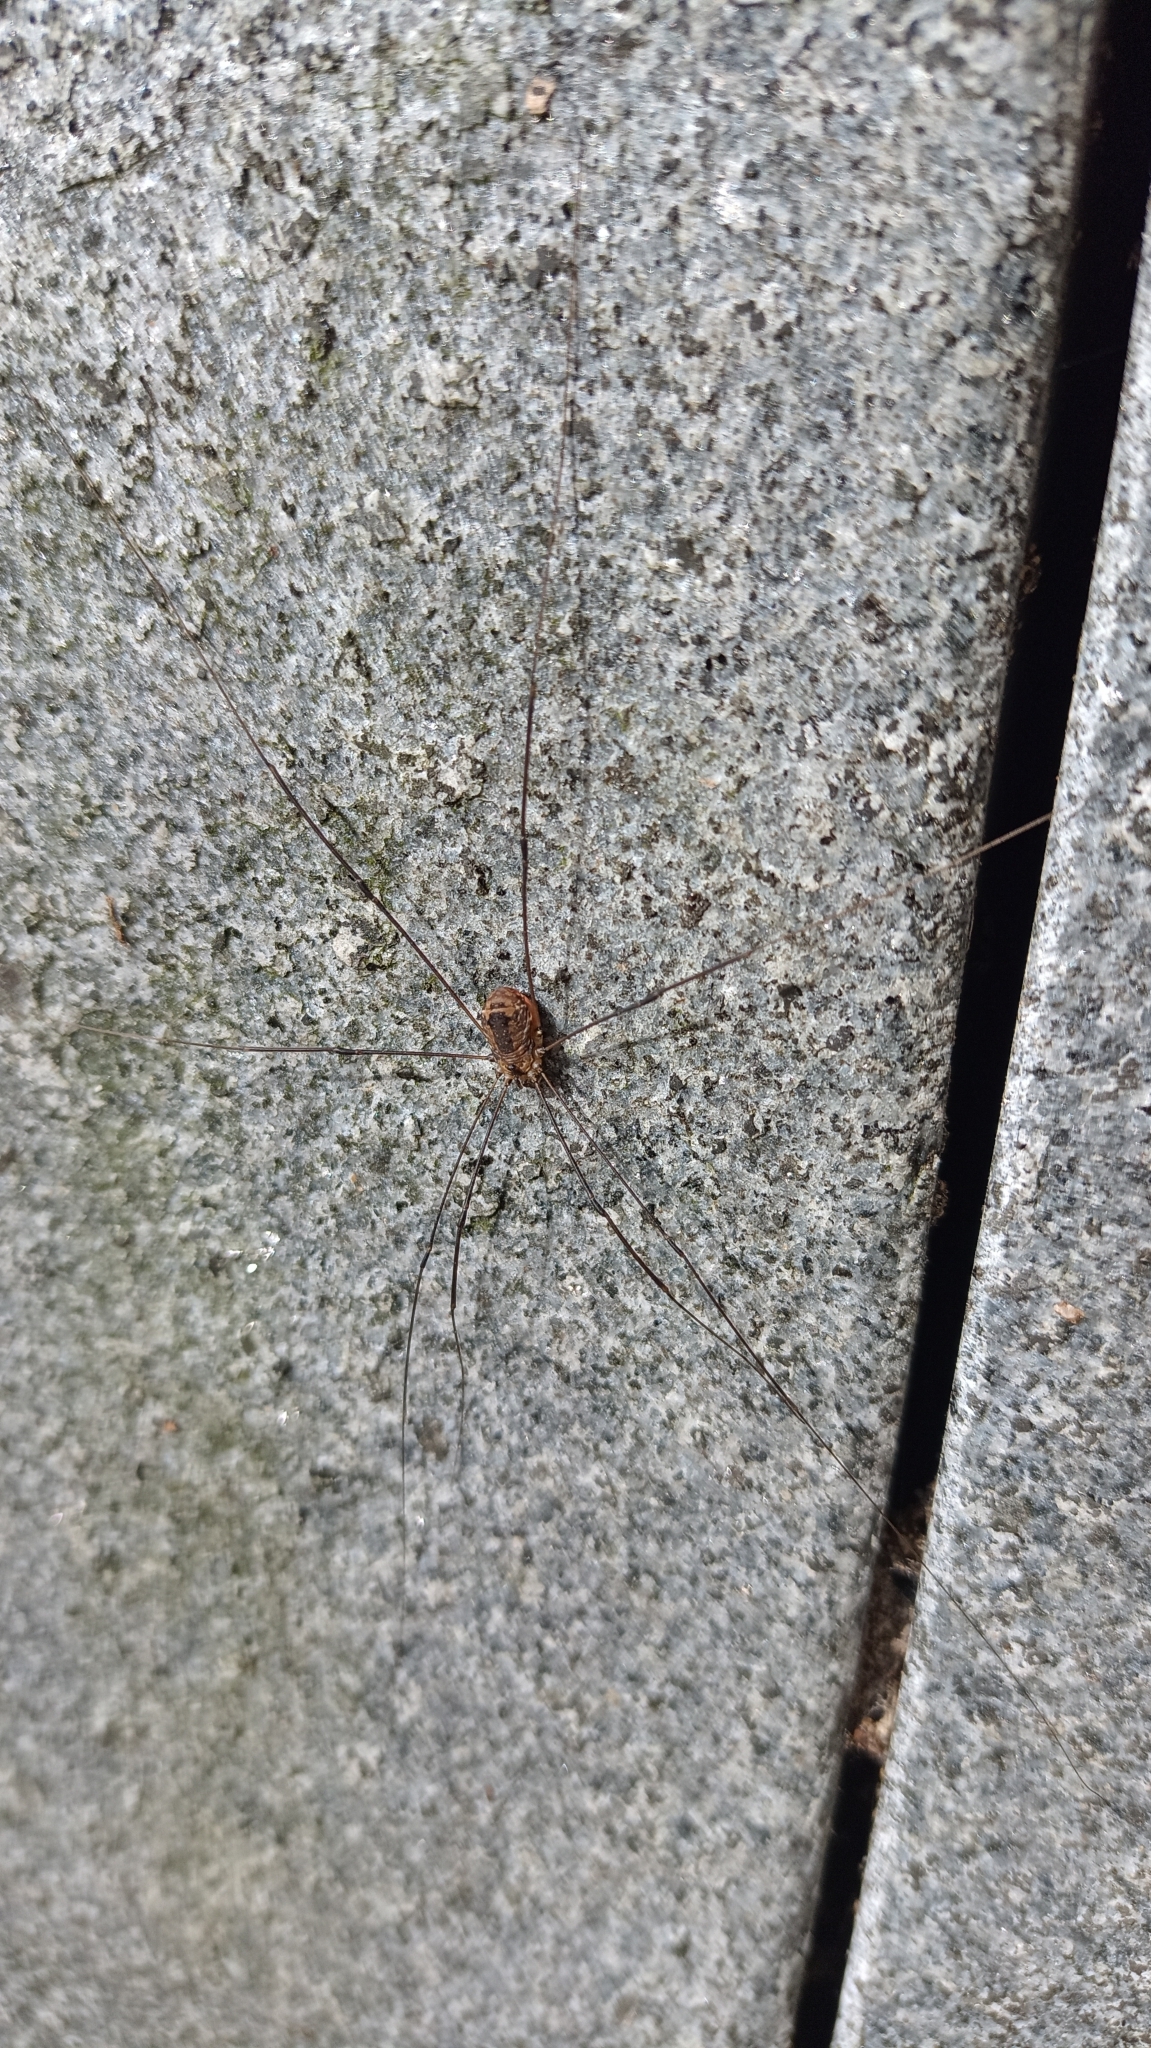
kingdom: Animalia
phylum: Arthropoda
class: Arachnida
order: Opiliones
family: Sclerosomatidae
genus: Leiobunum
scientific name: Leiobunum rotundum
